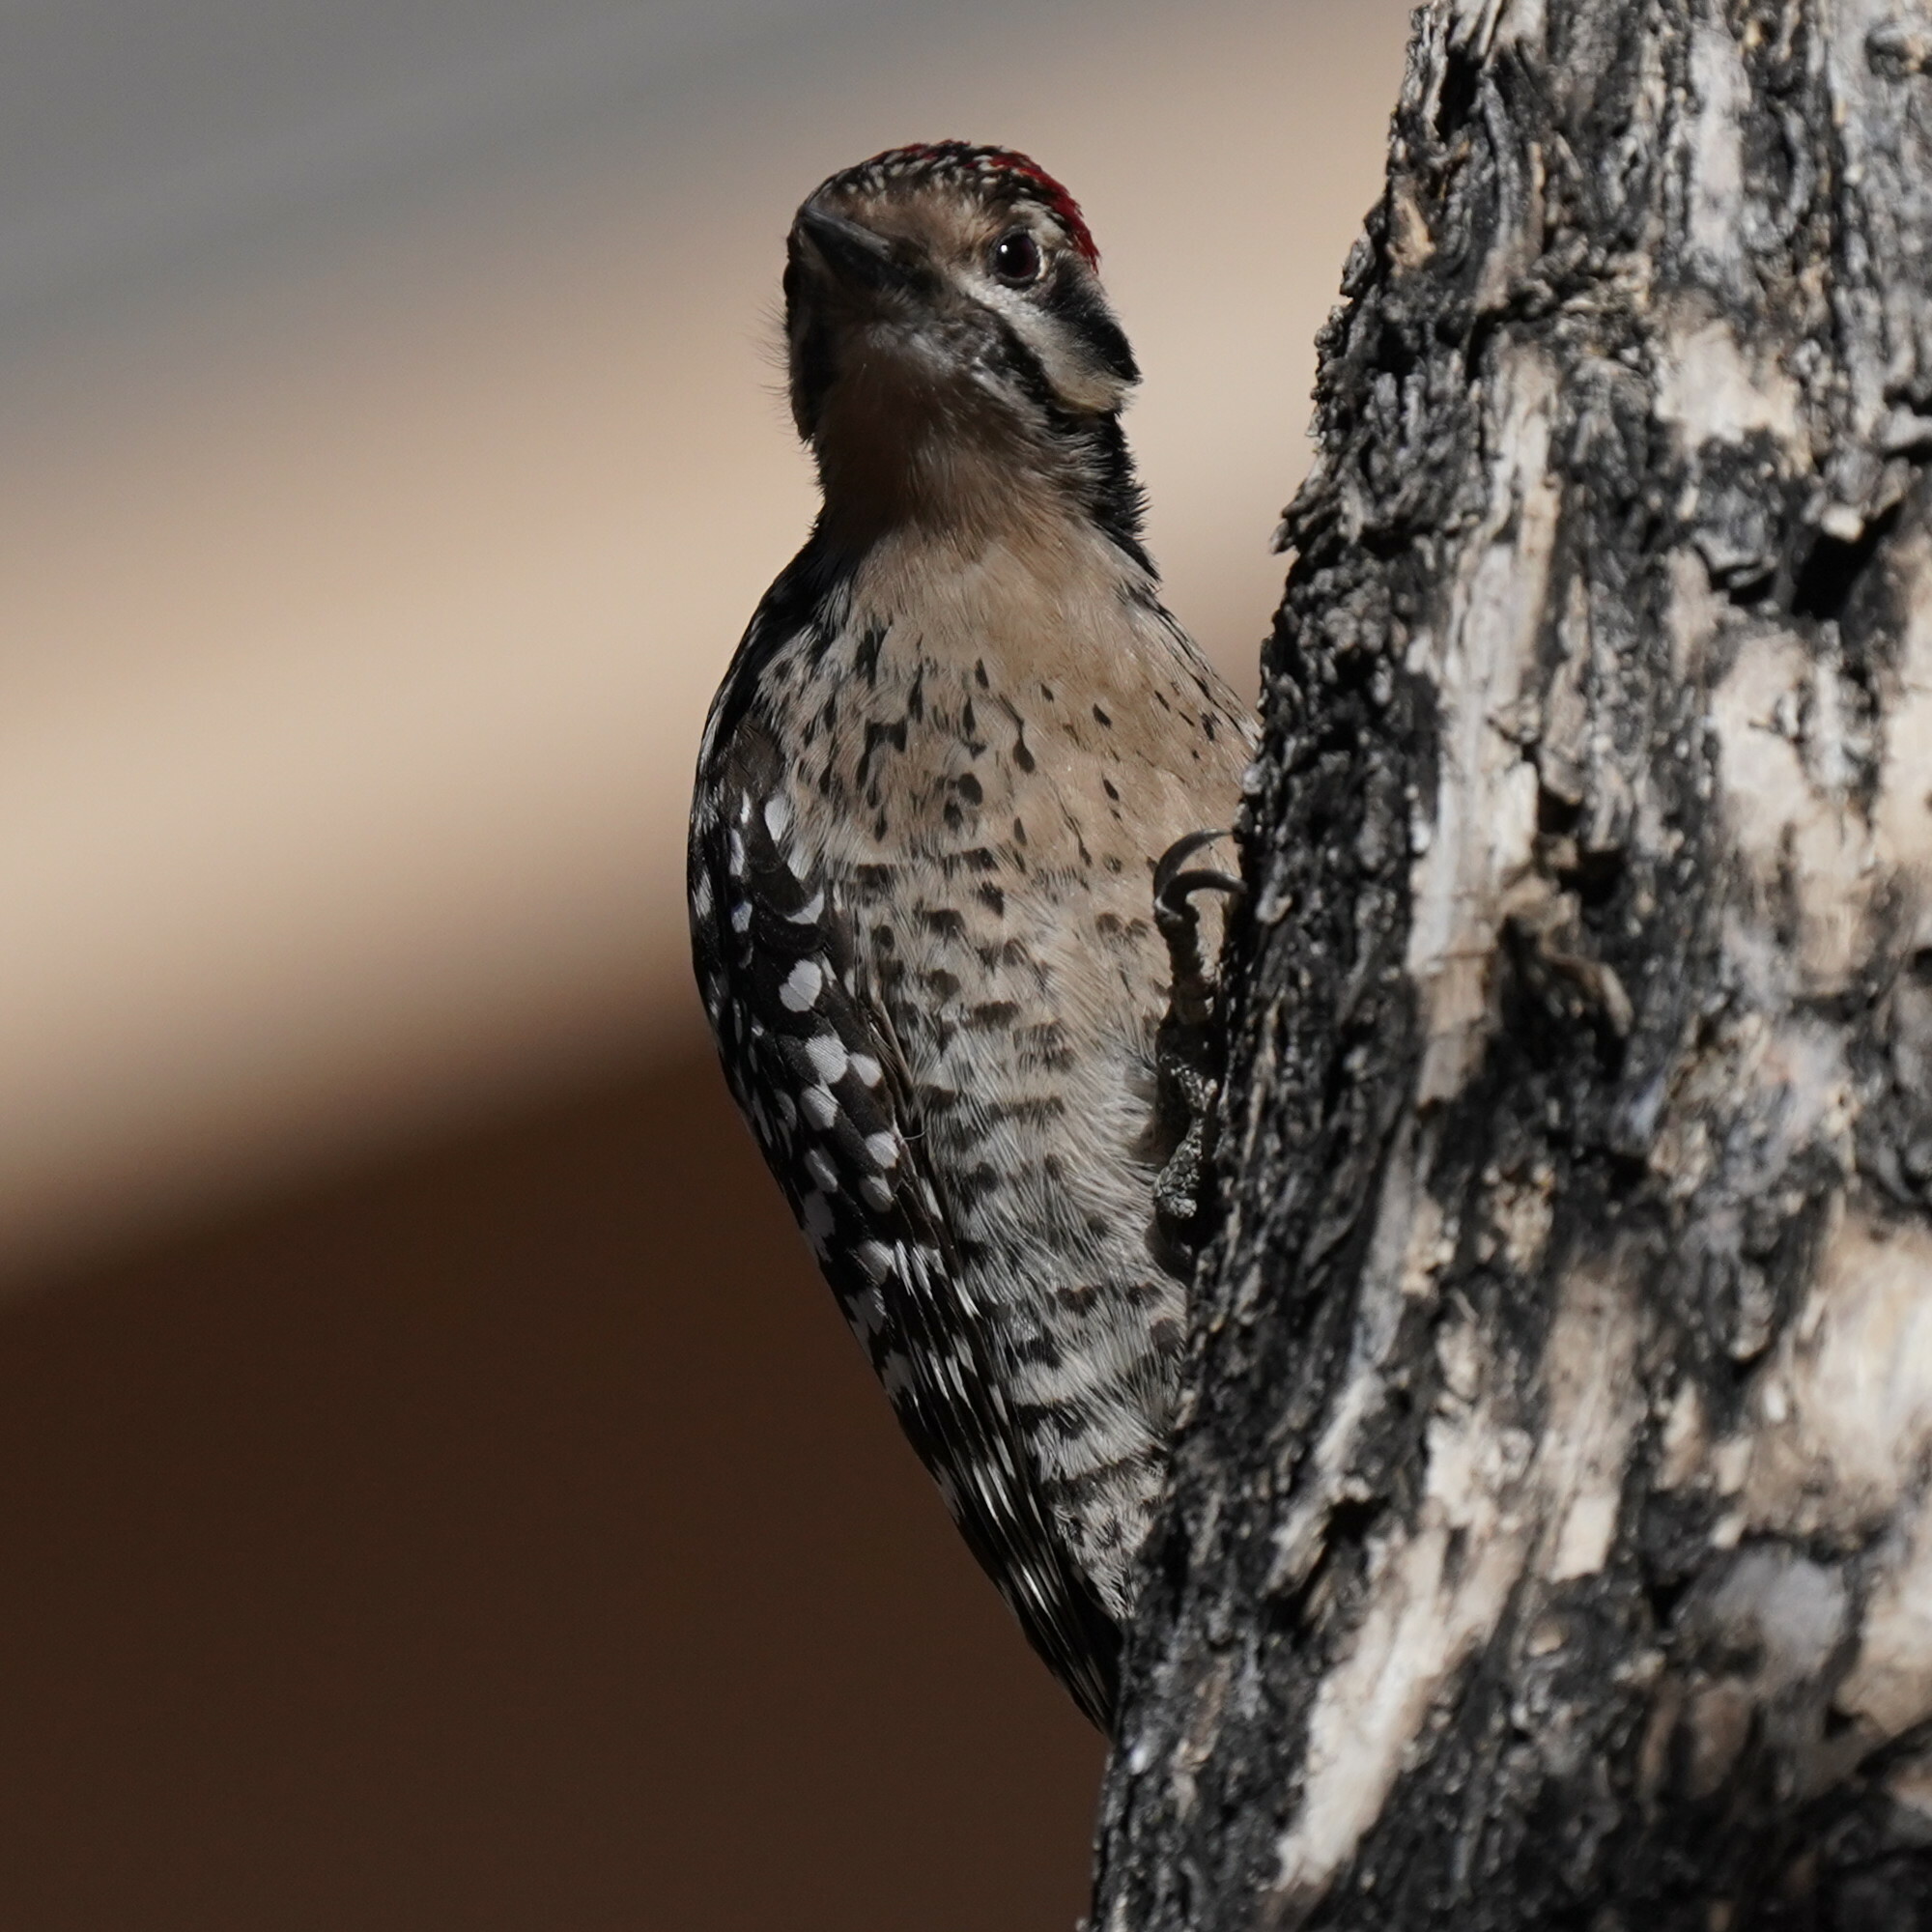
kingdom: Animalia
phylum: Chordata
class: Aves
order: Piciformes
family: Picidae
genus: Dryobates
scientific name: Dryobates scalaris
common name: Ladder-backed woodpecker
